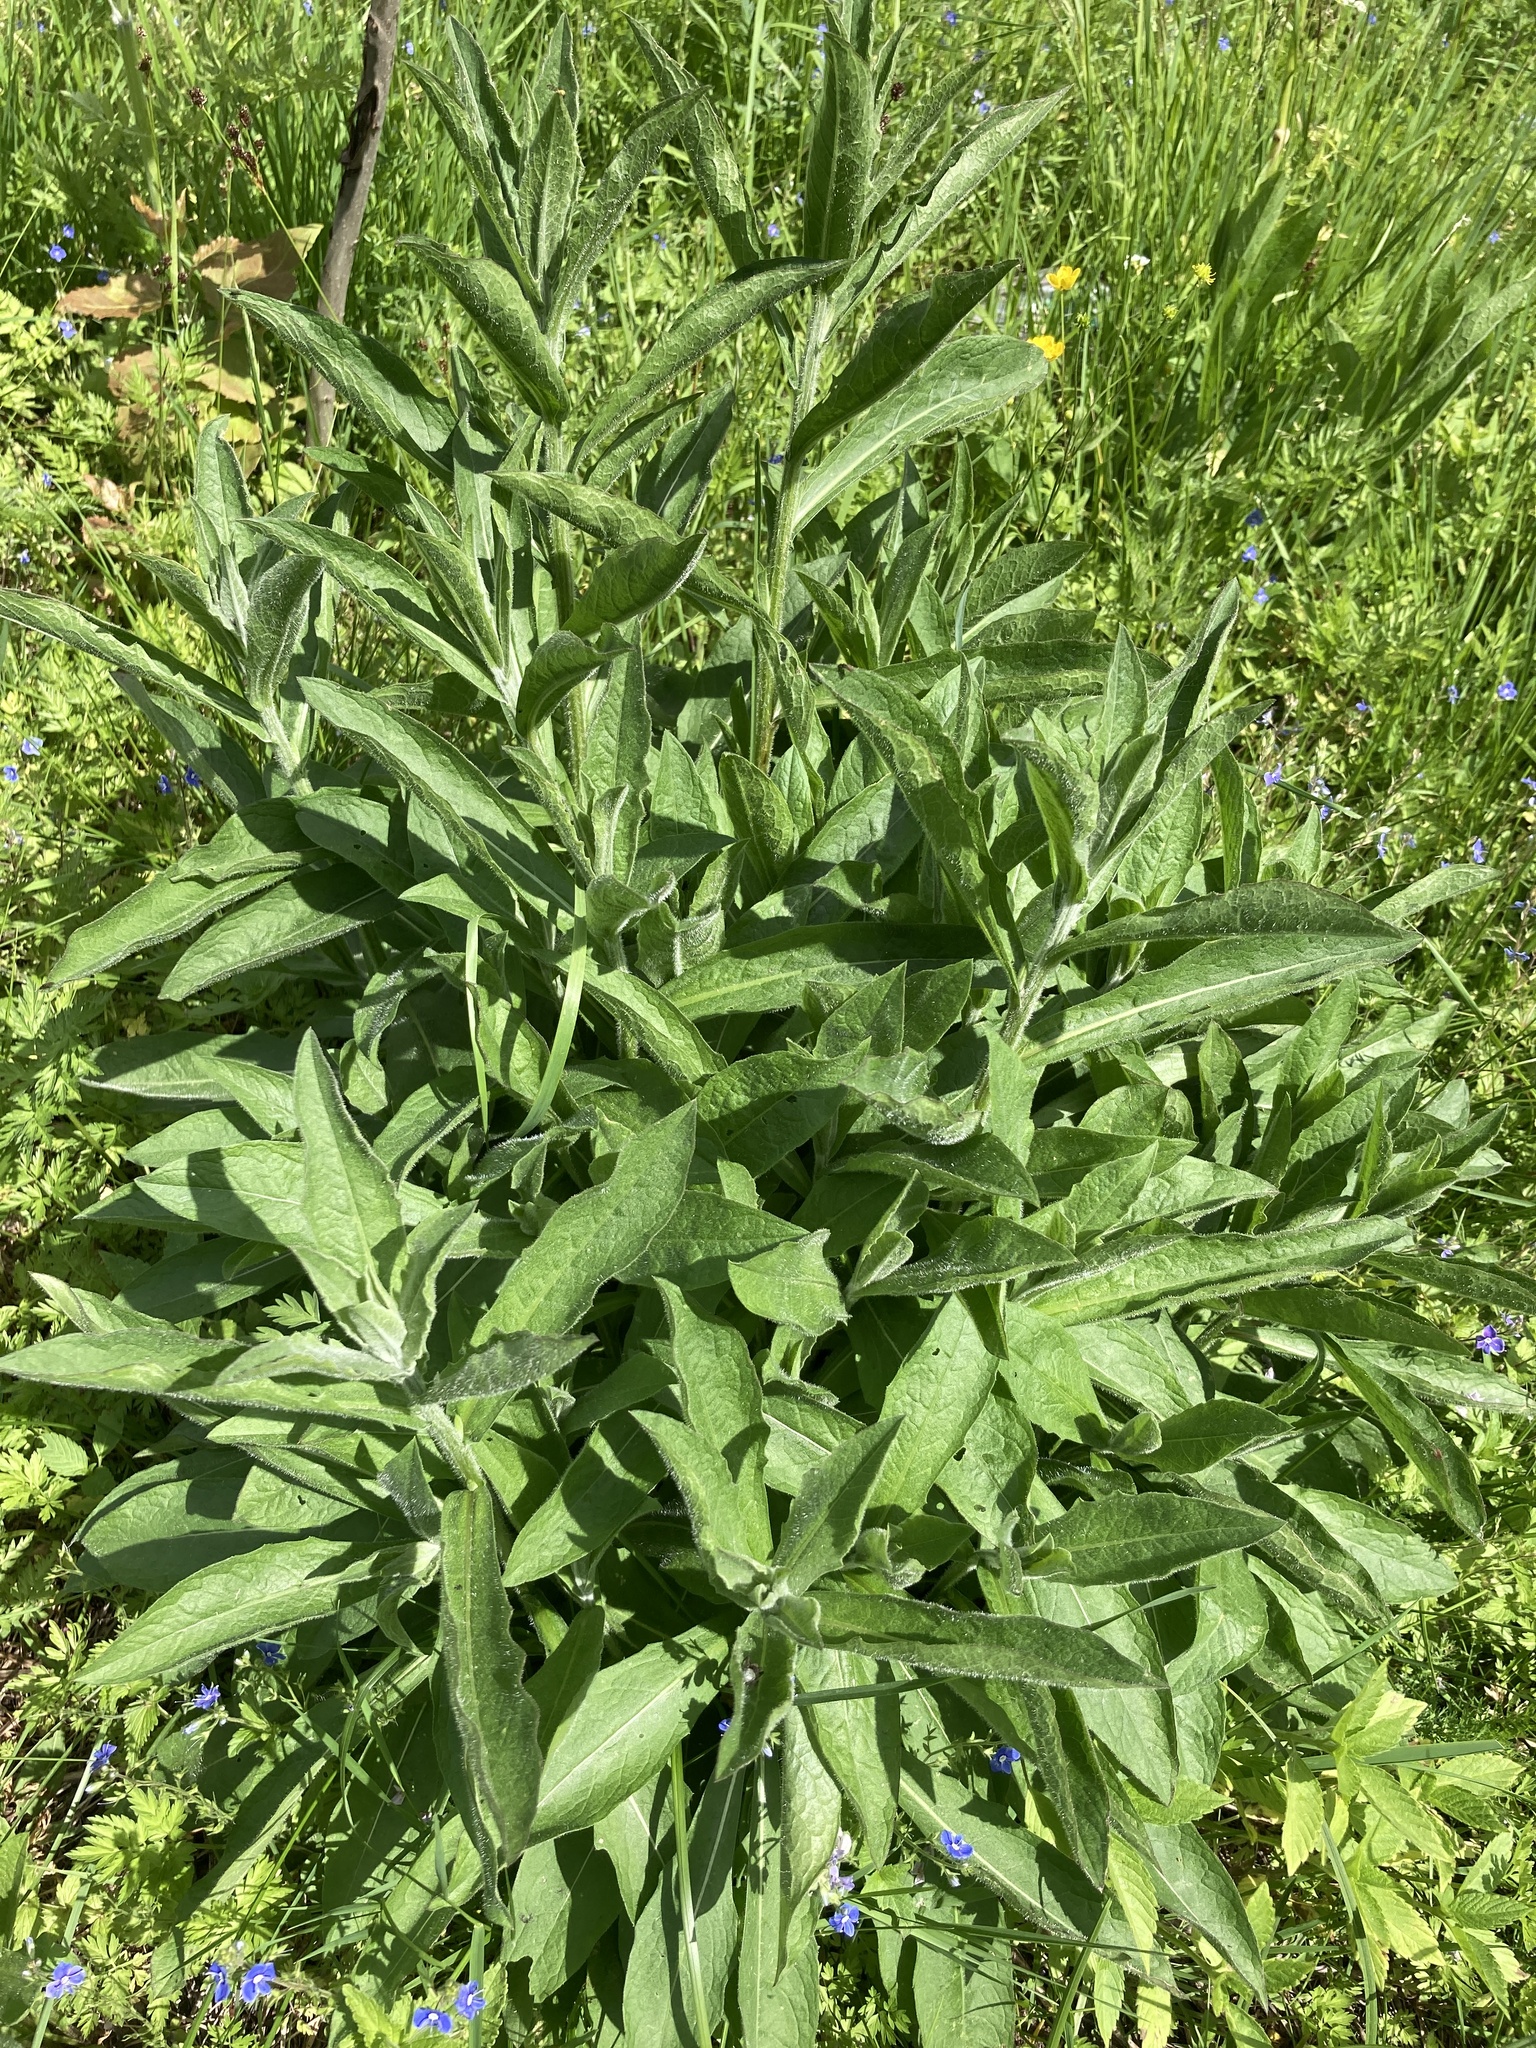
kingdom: Plantae
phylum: Tracheophyta
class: Magnoliopsida
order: Asterales
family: Asteraceae
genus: Centaurea
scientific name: Centaurea jacea
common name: Brown knapweed
